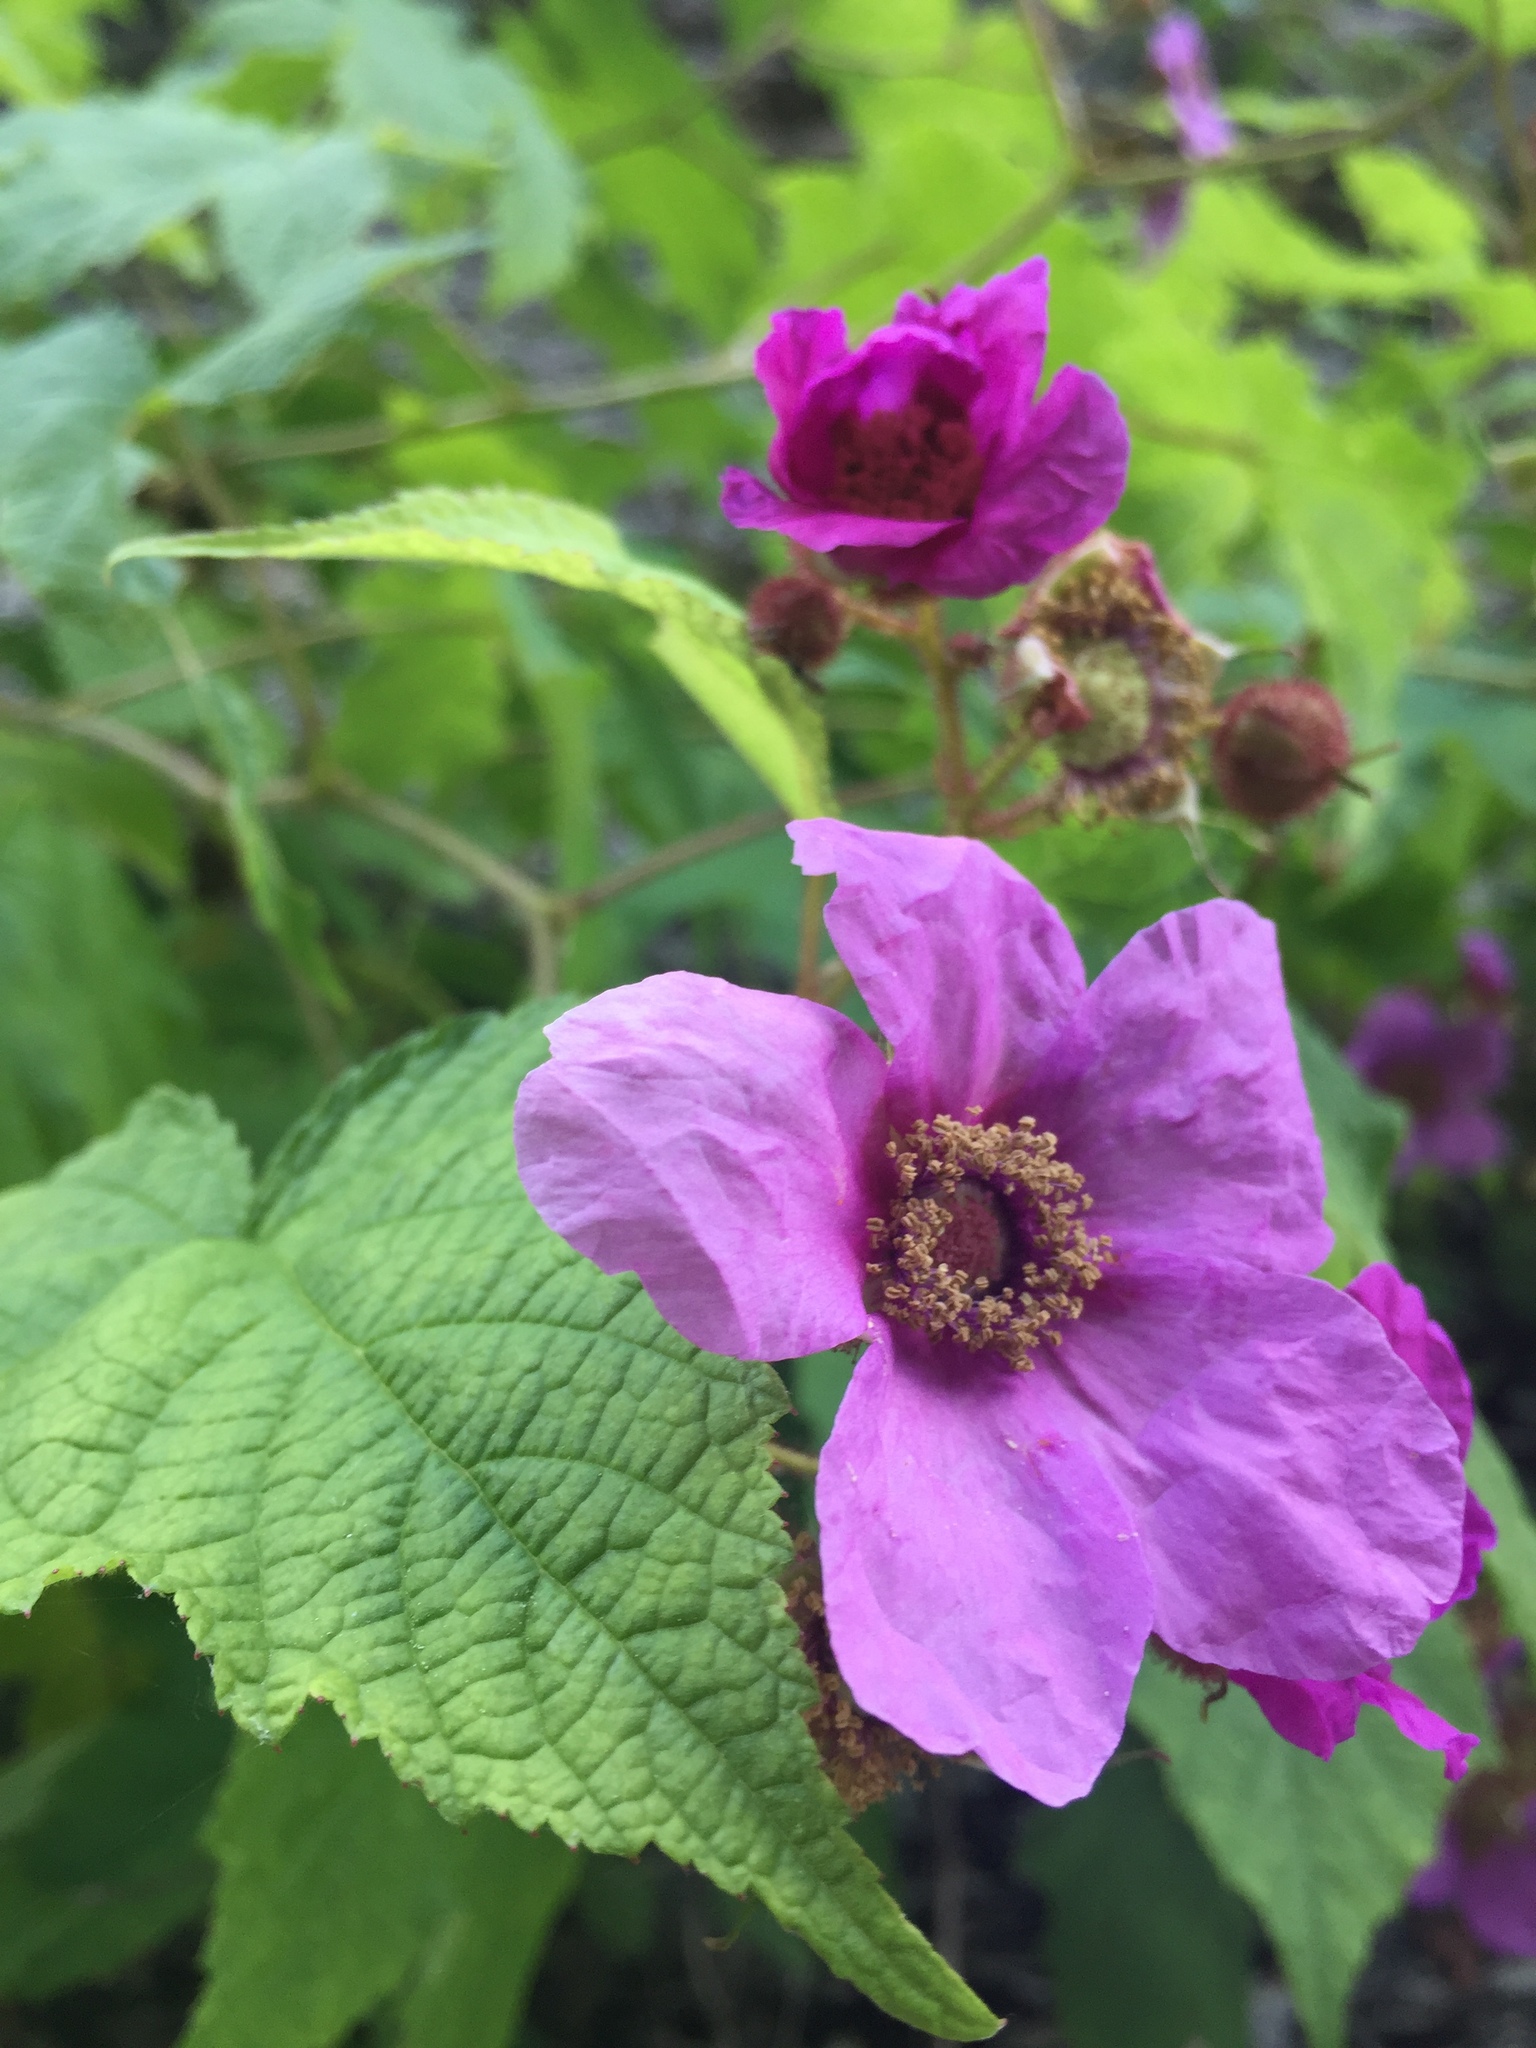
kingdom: Plantae
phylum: Tracheophyta
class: Magnoliopsida
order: Rosales
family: Rosaceae
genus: Rubus
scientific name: Rubus odoratus
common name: Purple-flowered raspberry
